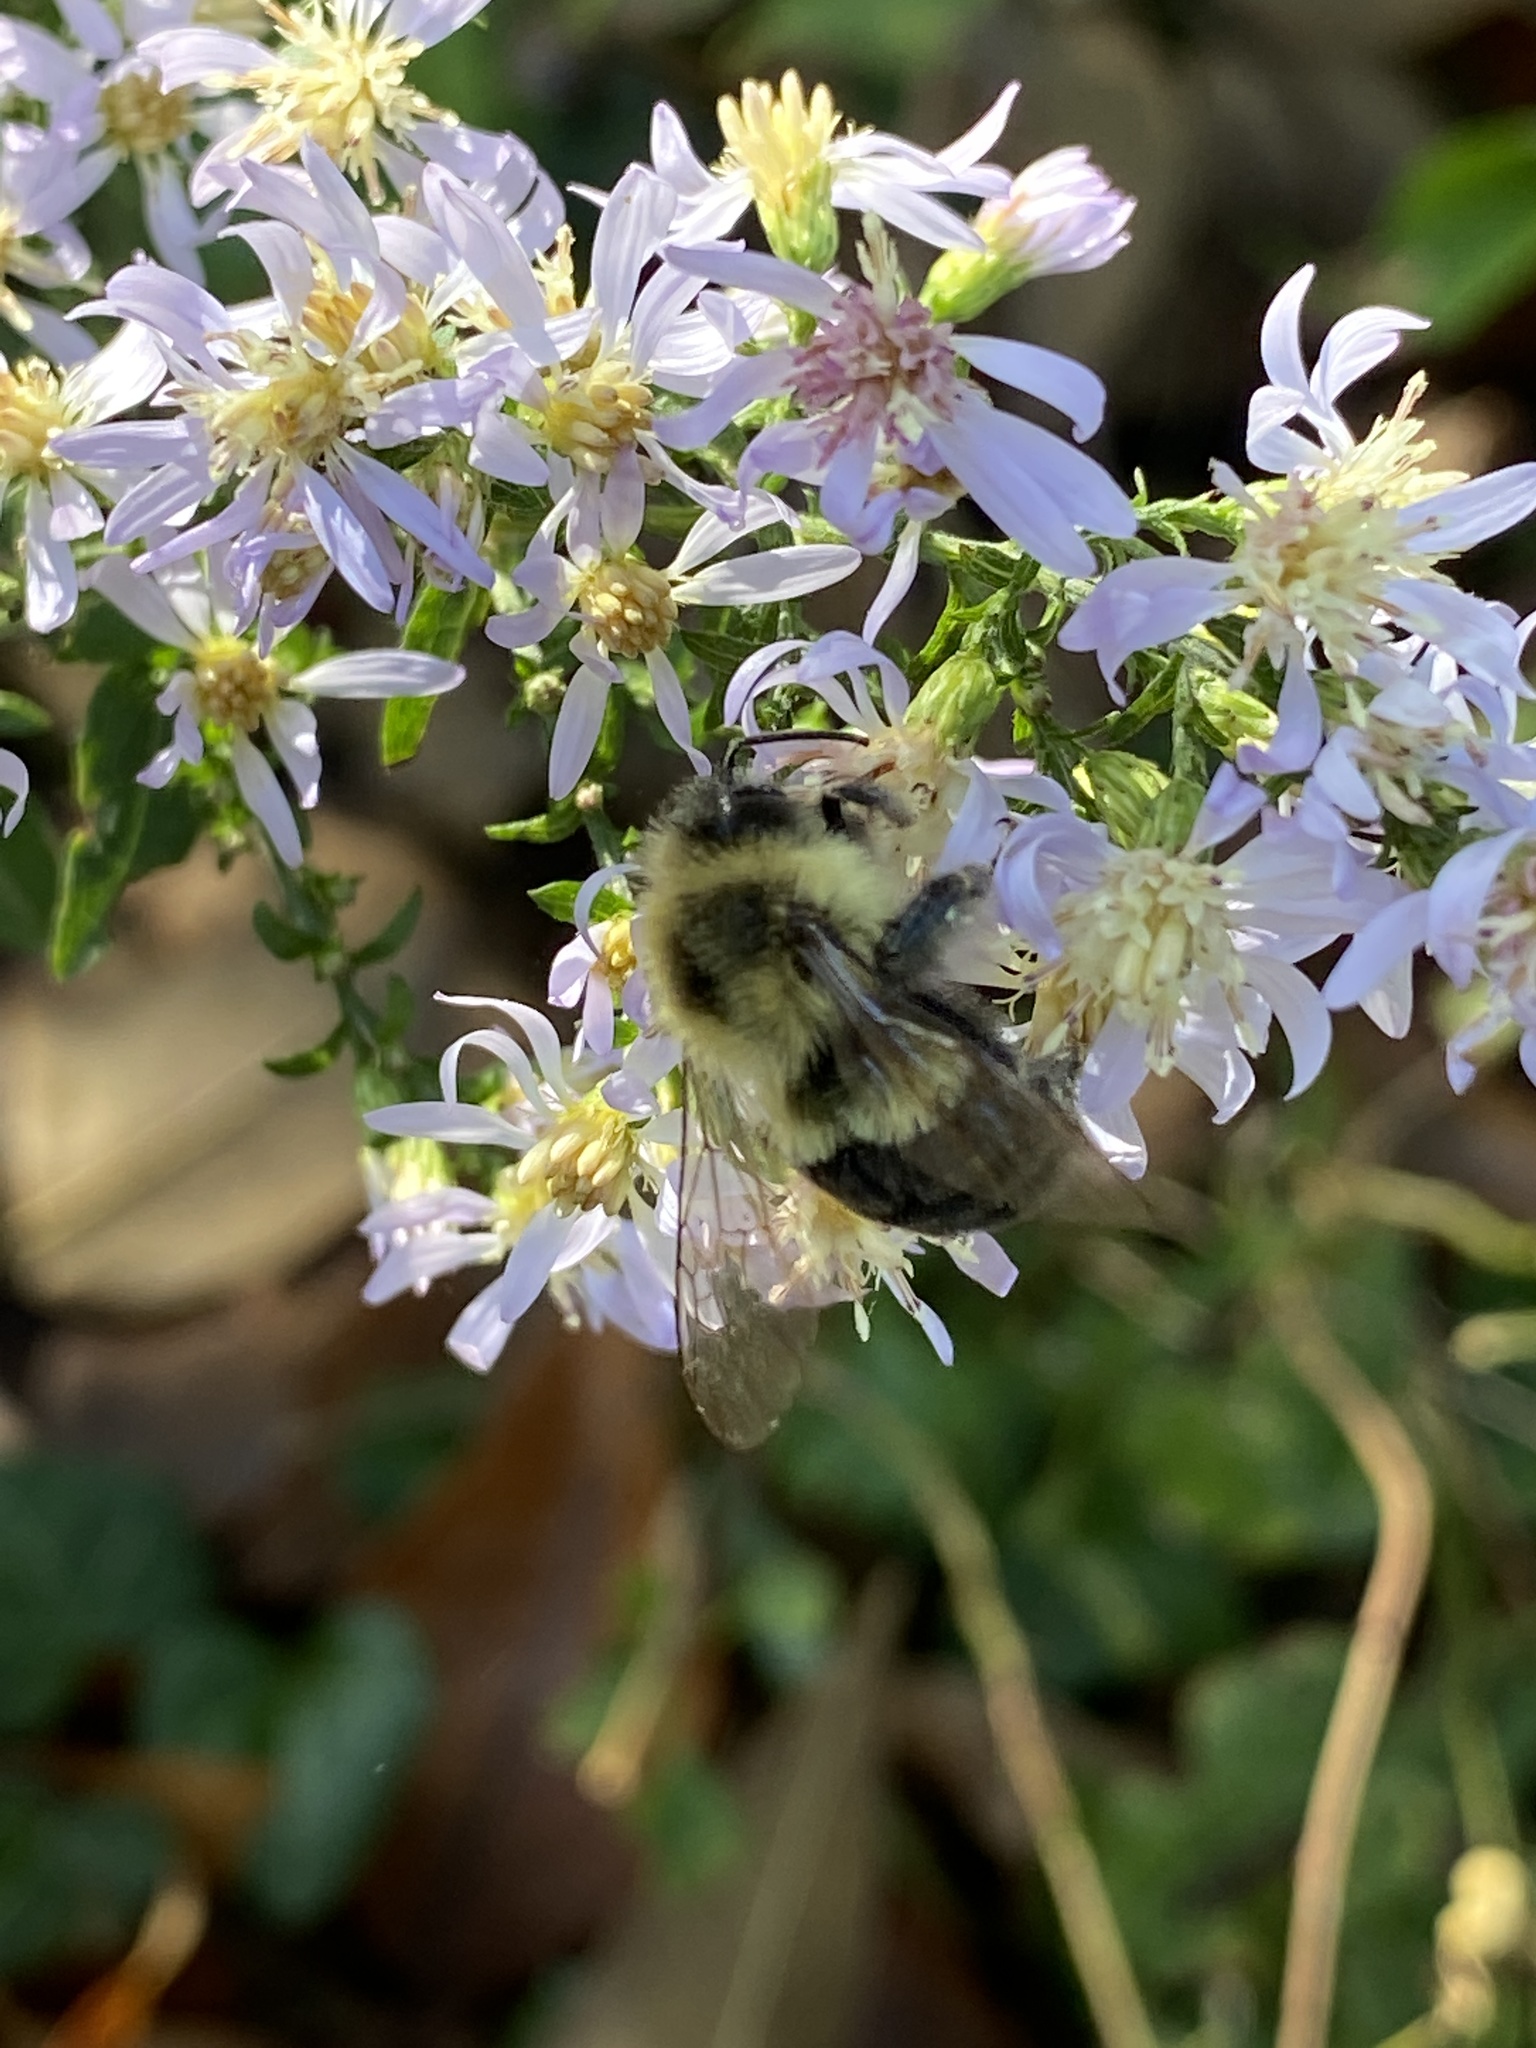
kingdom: Animalia
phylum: Arthropoda
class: Insecta
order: Hymenoptera
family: Apidae
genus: Bombus
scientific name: Bombus impatiens
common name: Common eastern bumble bee
